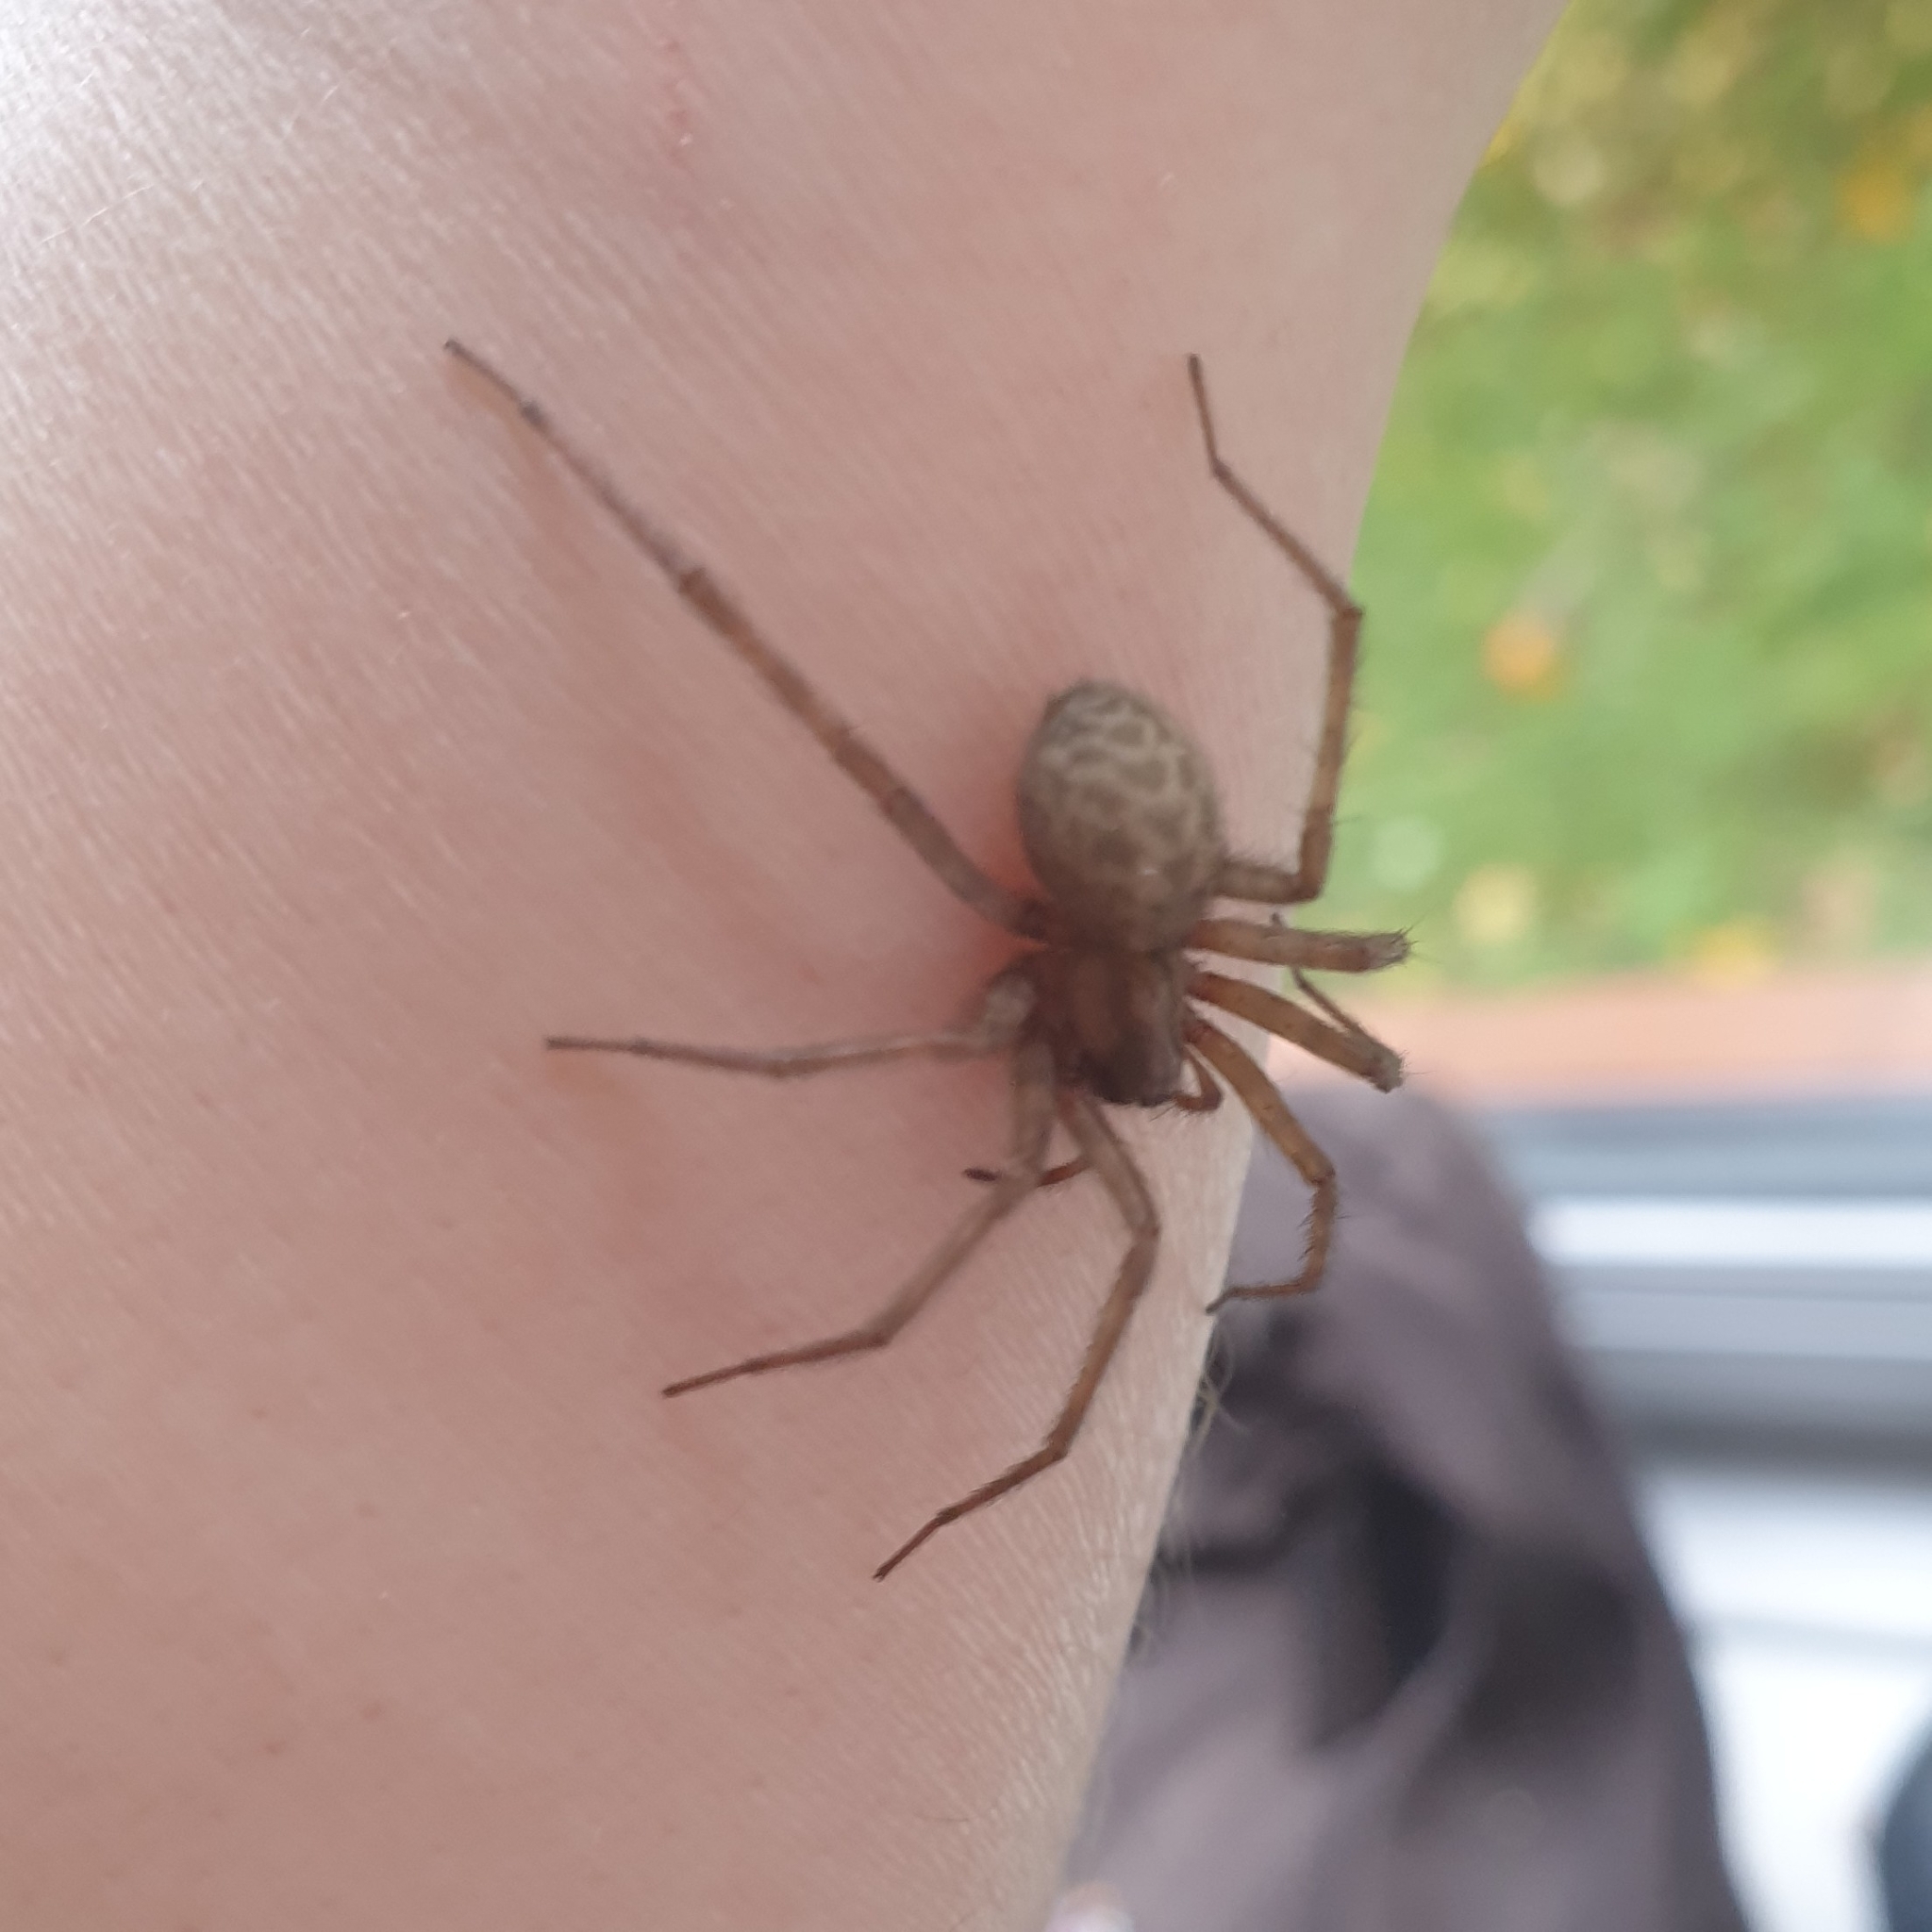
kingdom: Animalia
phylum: Arthropoda
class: Arachnida
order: Araneae
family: Agelenidae
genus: Tegenaria
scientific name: Tegenaria domestica
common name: Barn funnel weaver
